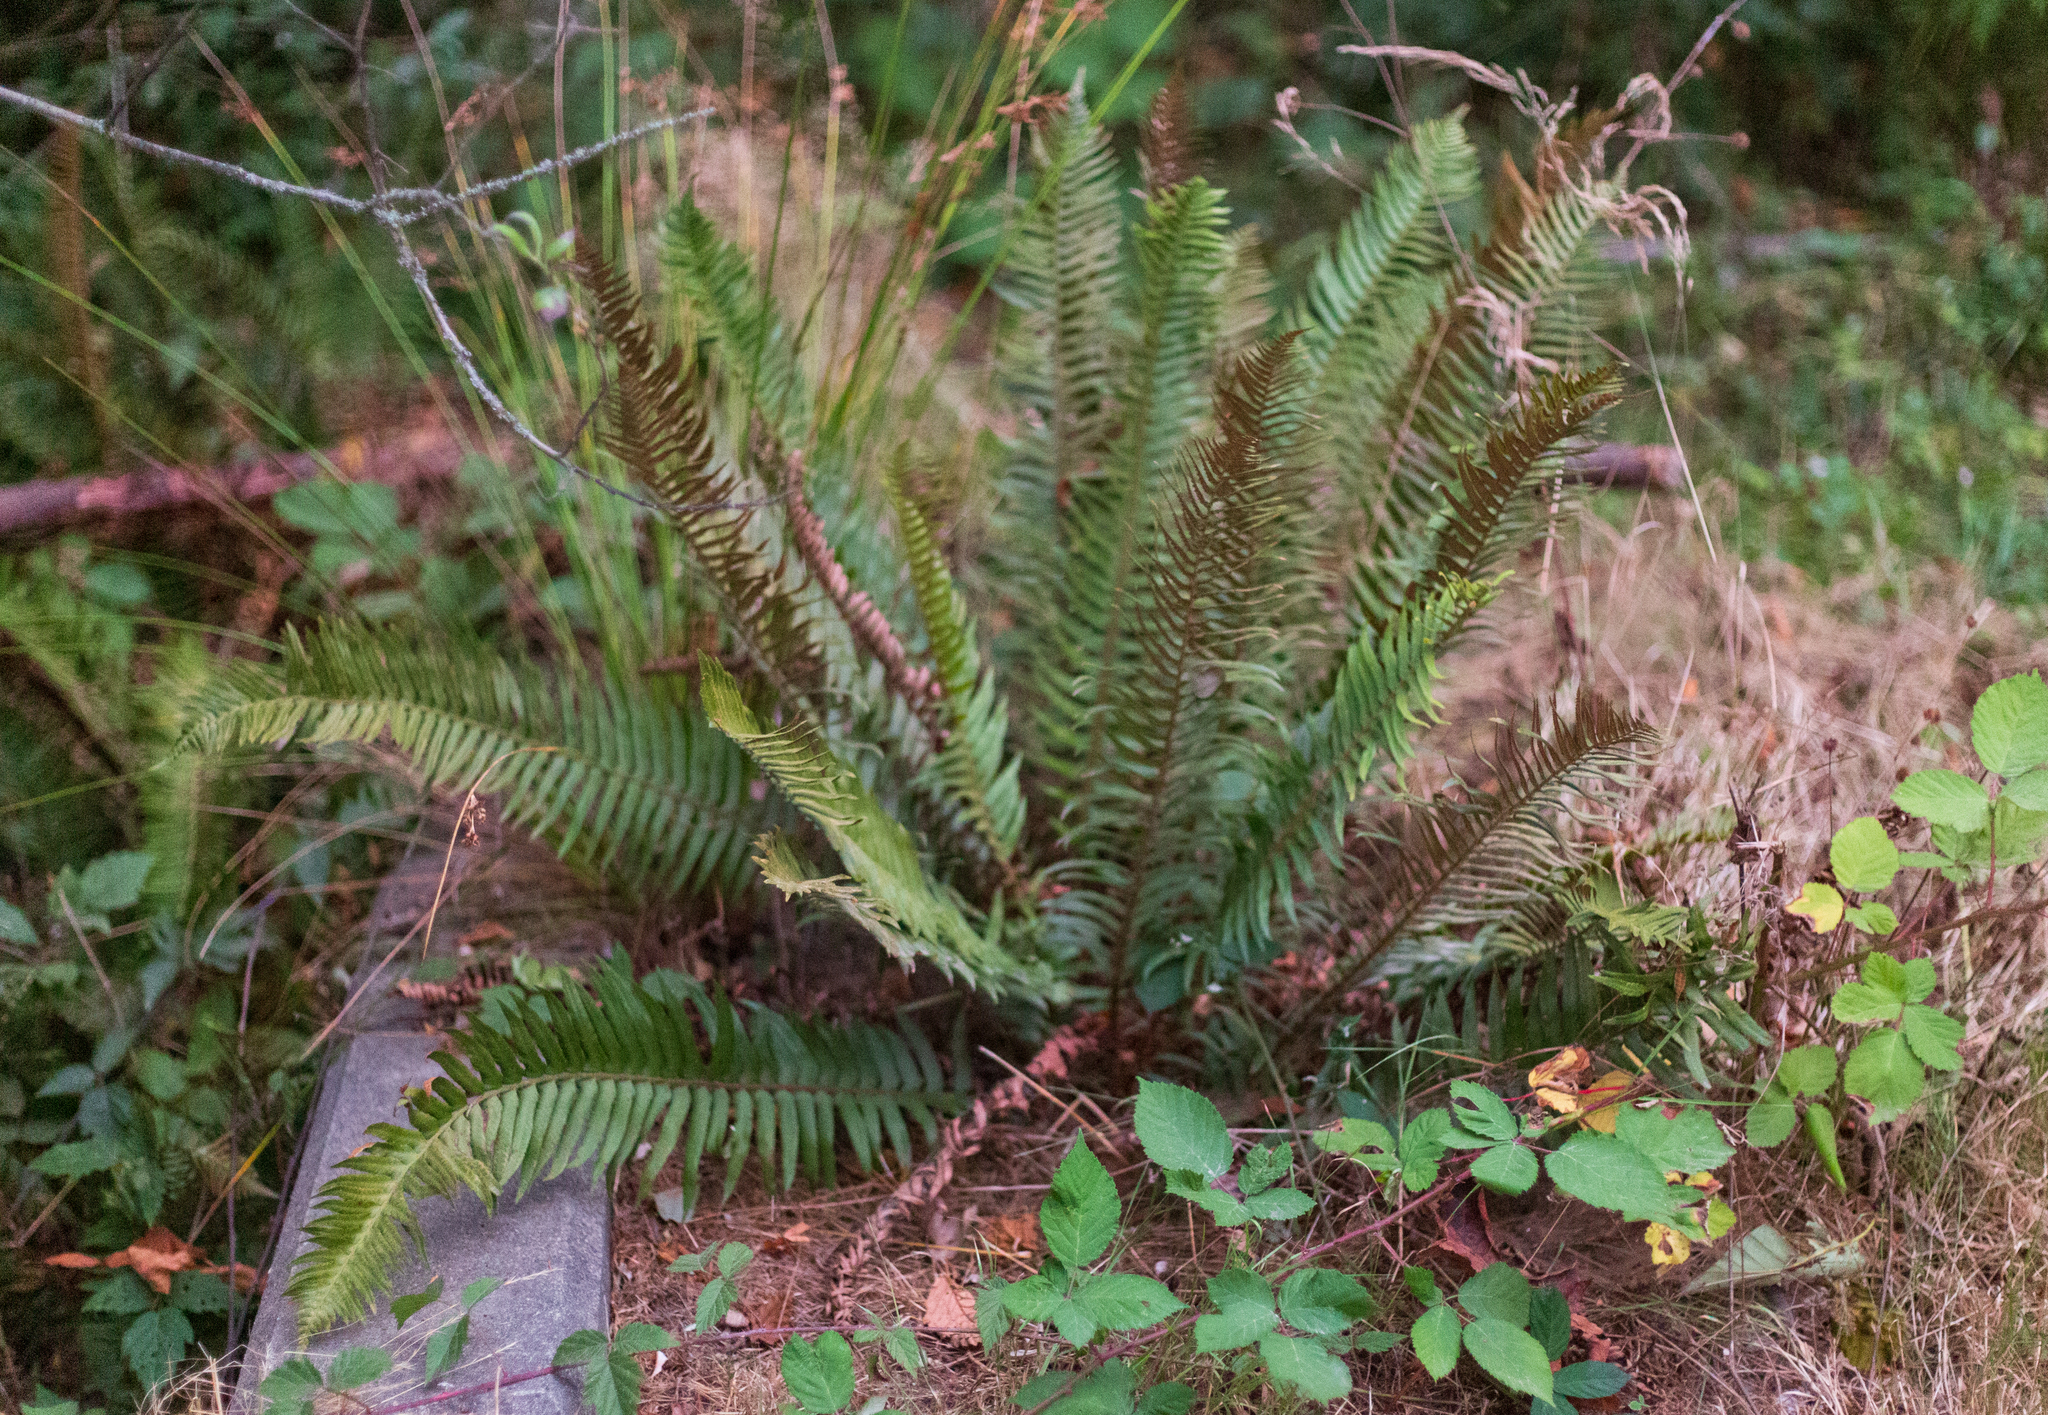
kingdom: Plantae
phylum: Tracheophyta
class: Polypodiopsida
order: Polypodiales
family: Dryopteridaceae
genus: Polystichum
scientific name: Polystichum munitum
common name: Western sword-fern
